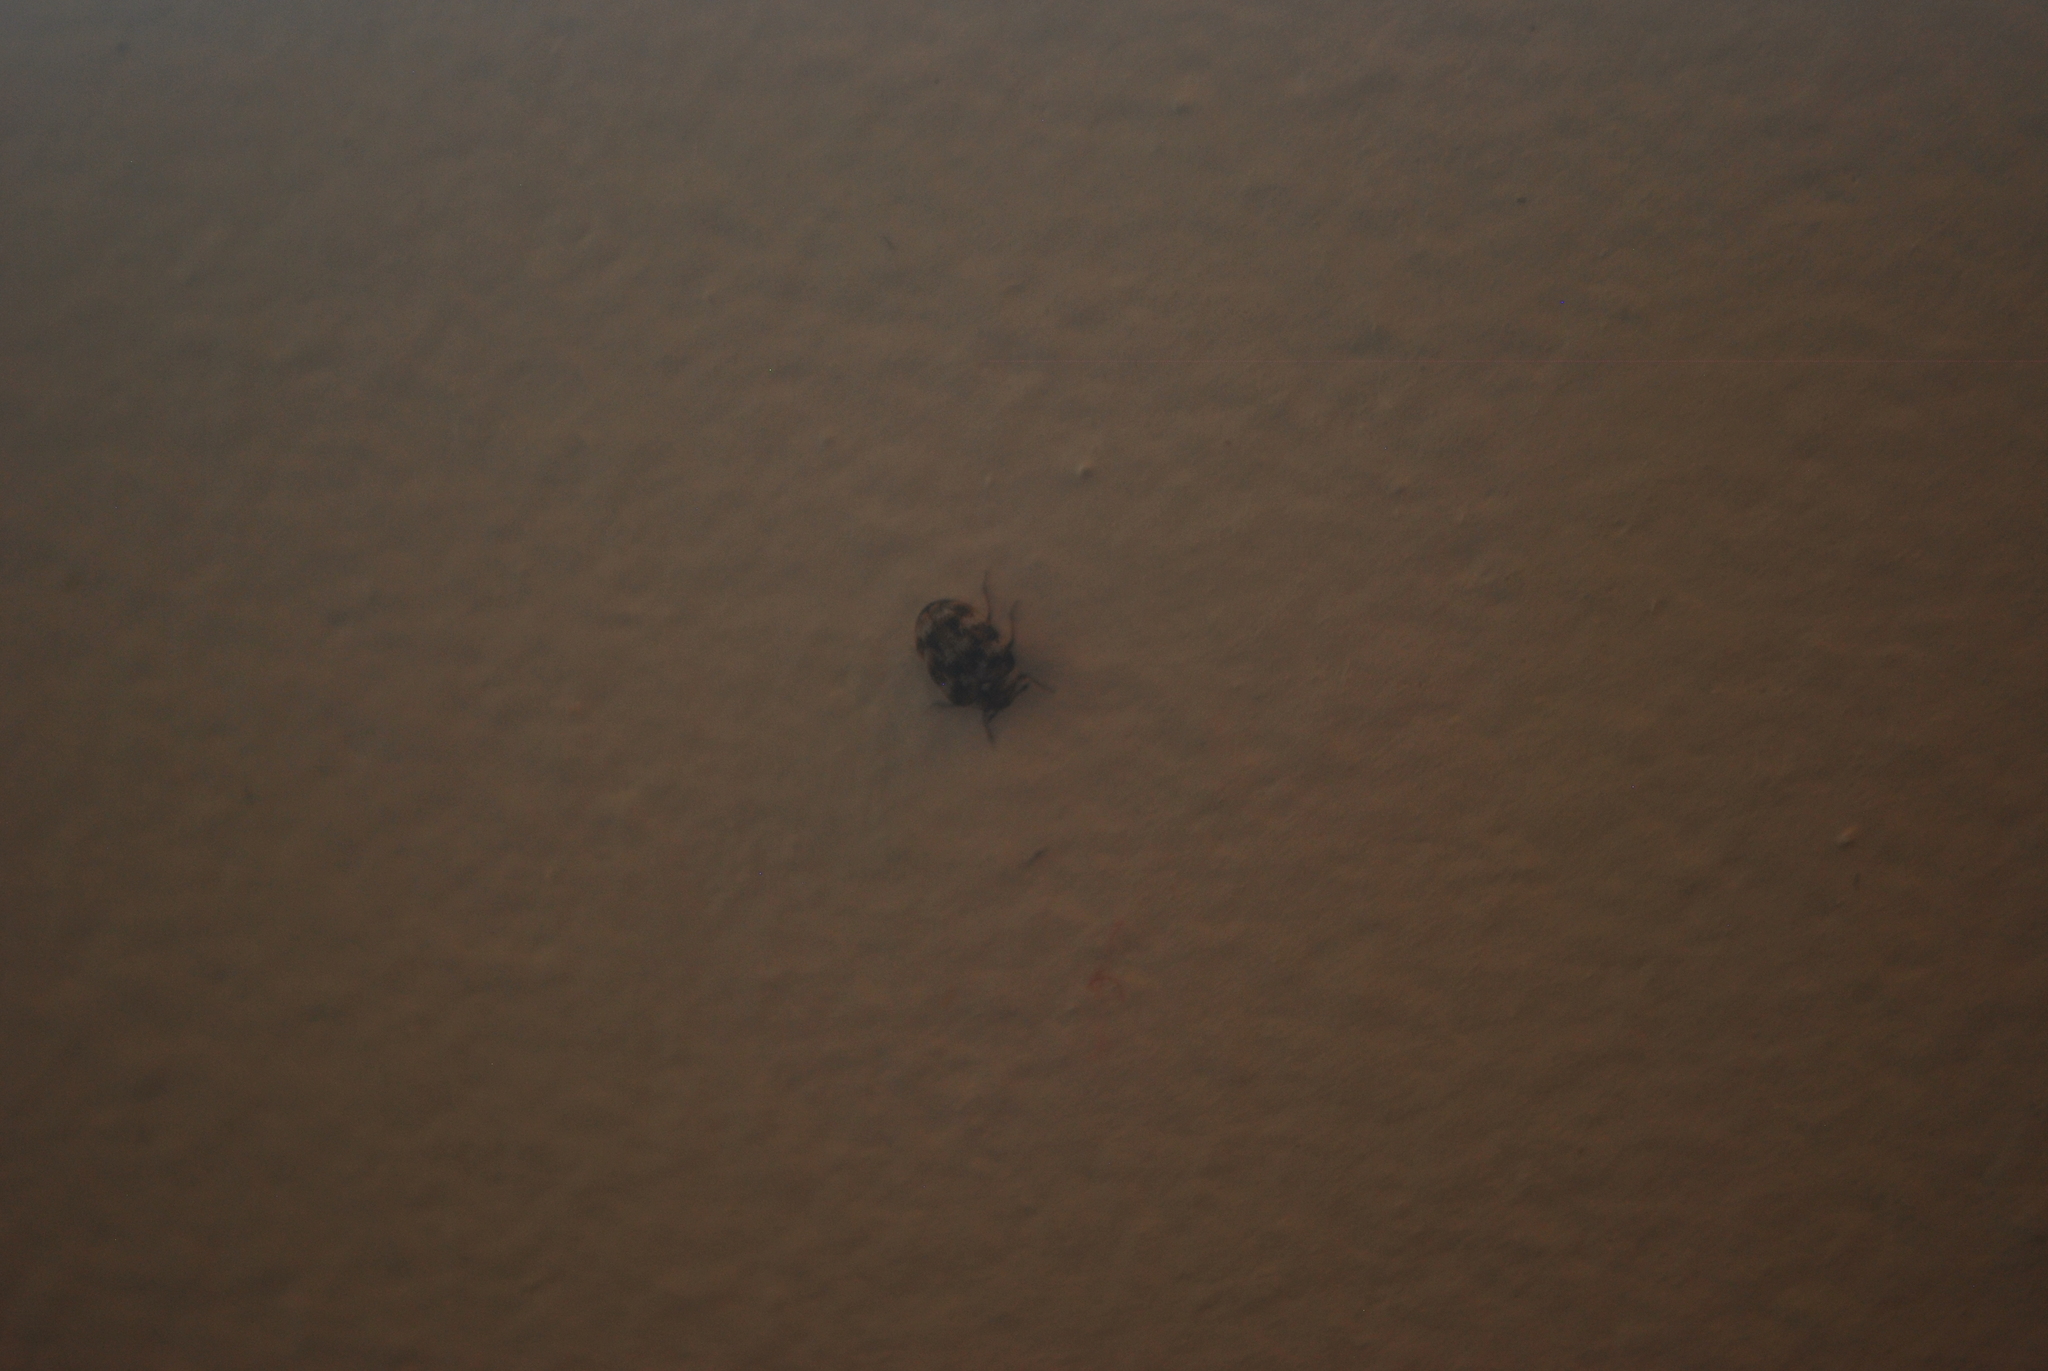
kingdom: Animalia
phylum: Arthropoda
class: Insecta
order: Coleoptera
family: Dermestidae
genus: Anthrenus
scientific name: Anthrenus verbasci
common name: Varied carpet beetle
